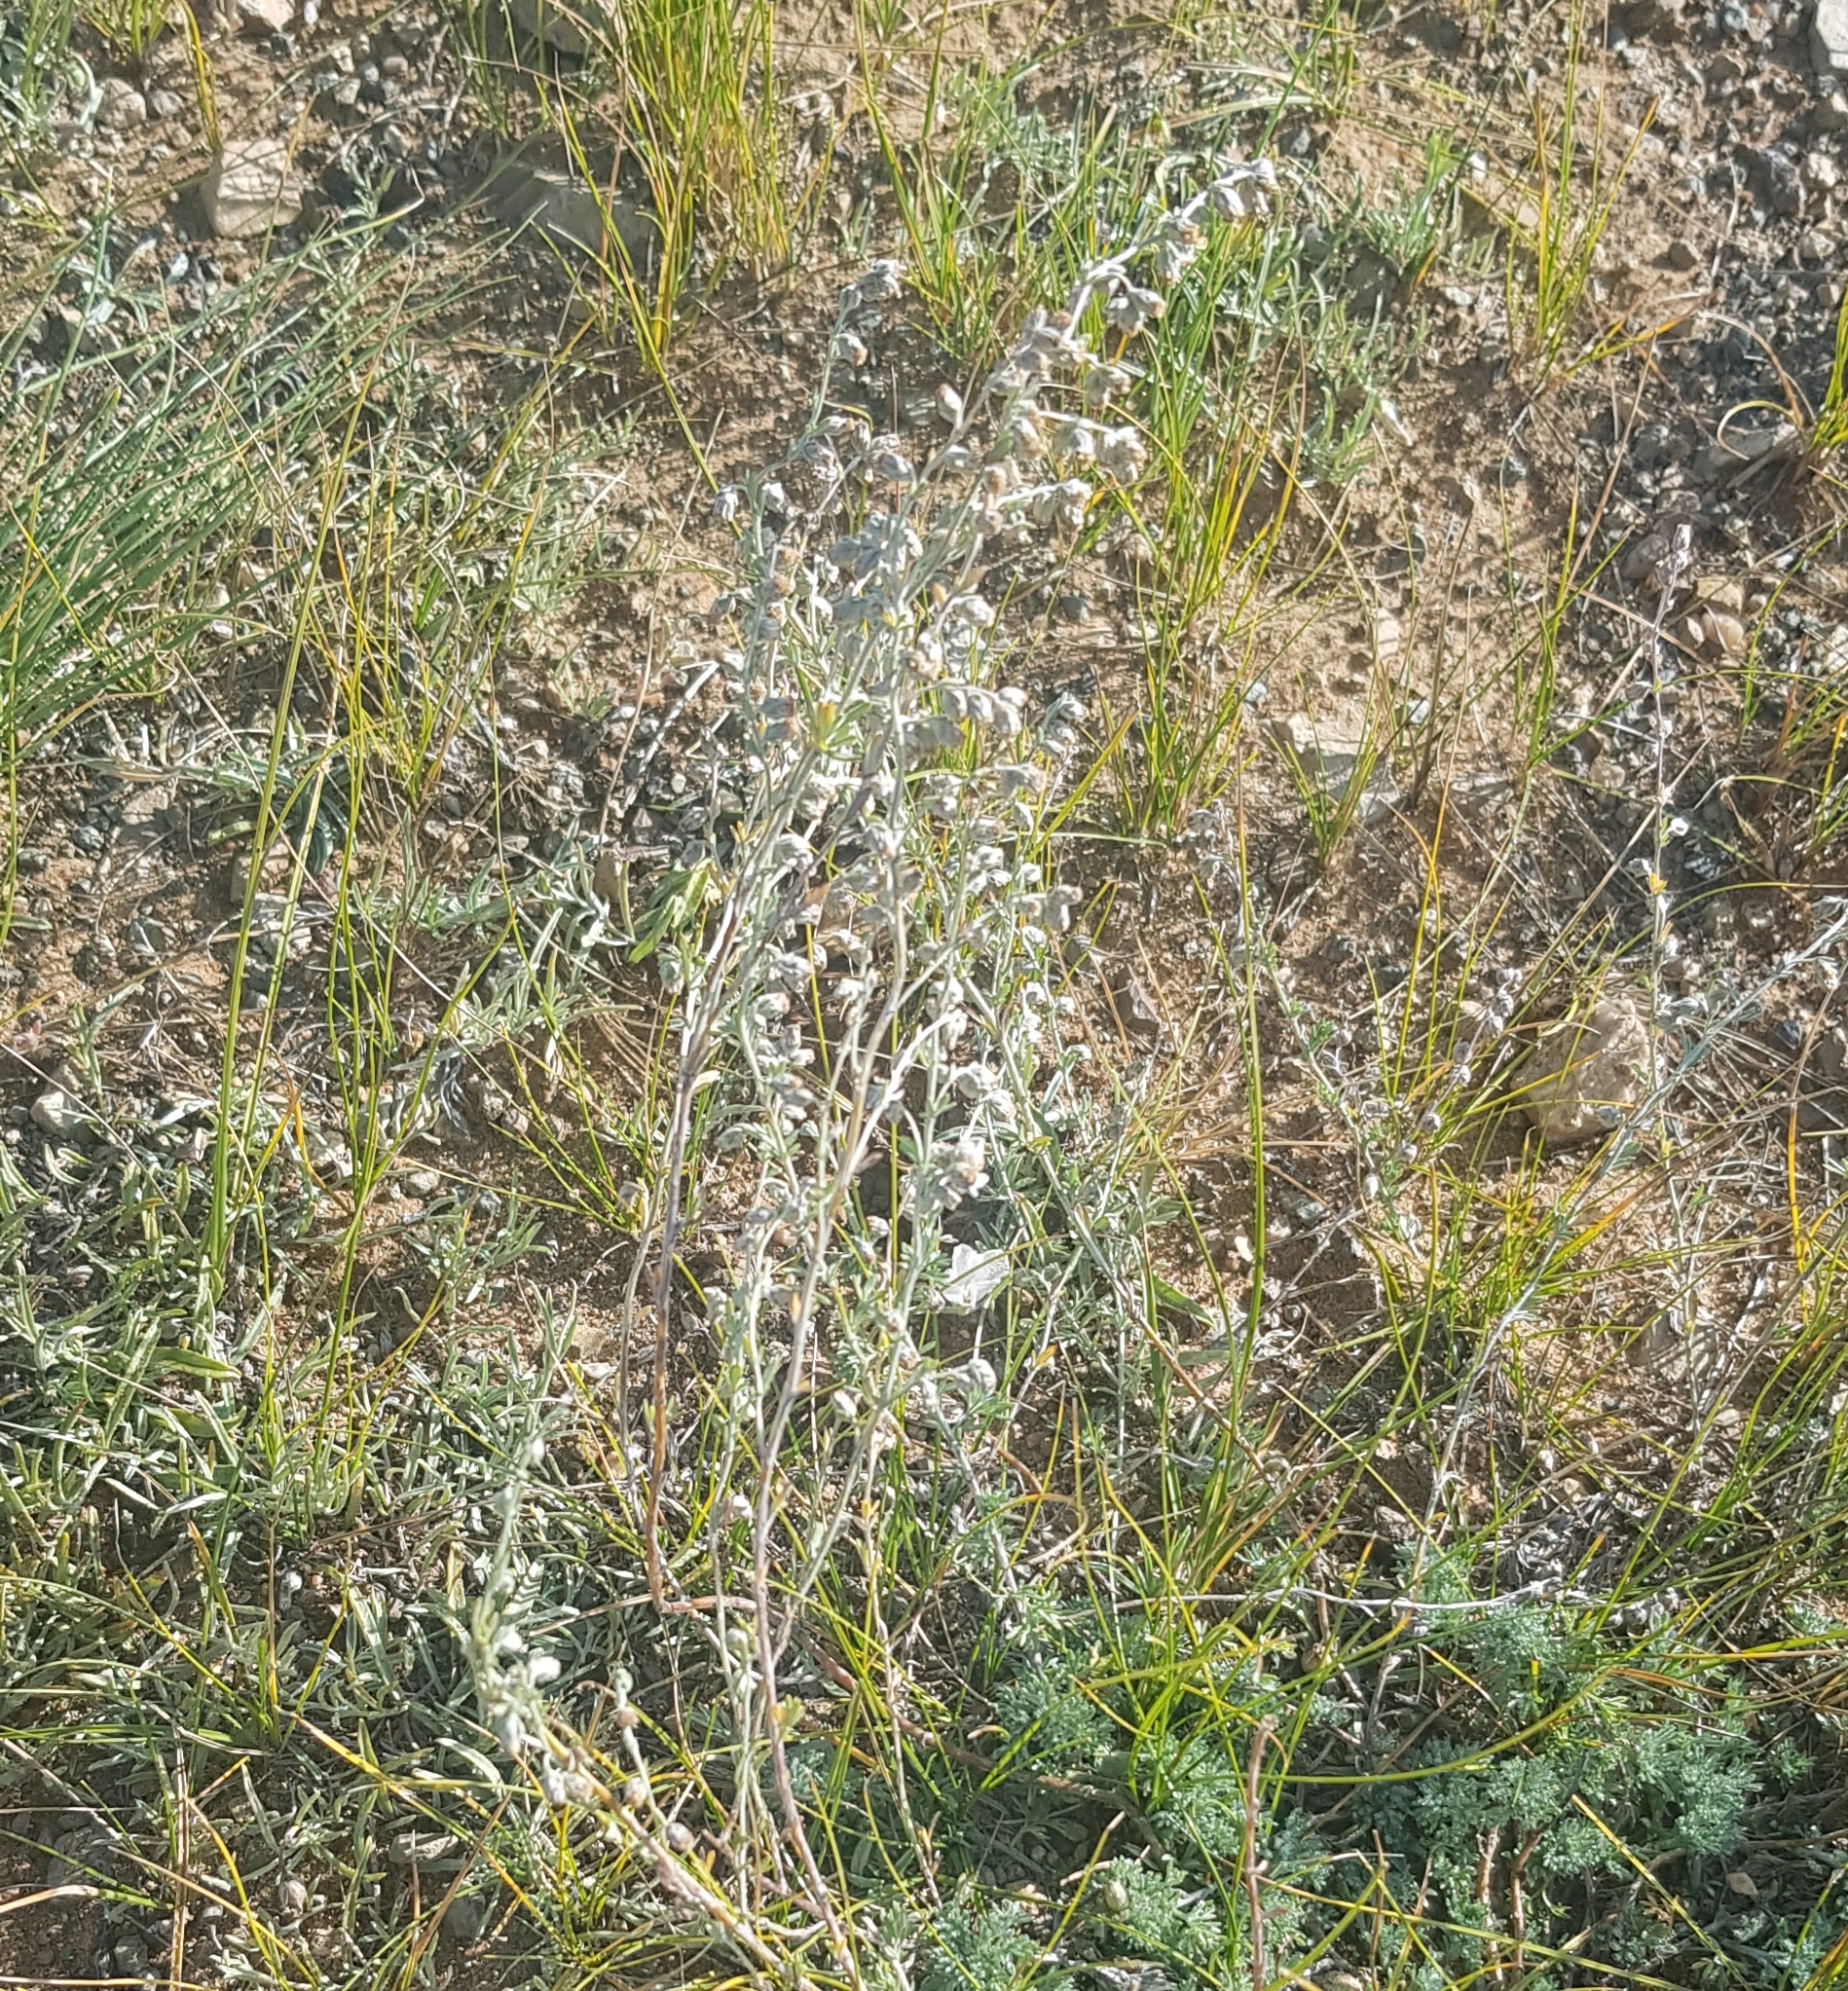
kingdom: Plantae
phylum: Tracheophyta
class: Magnoliopsida
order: Asterales
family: Asteraceae
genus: Artemisia
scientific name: Artemisia frigida
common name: Prairie sagewort
